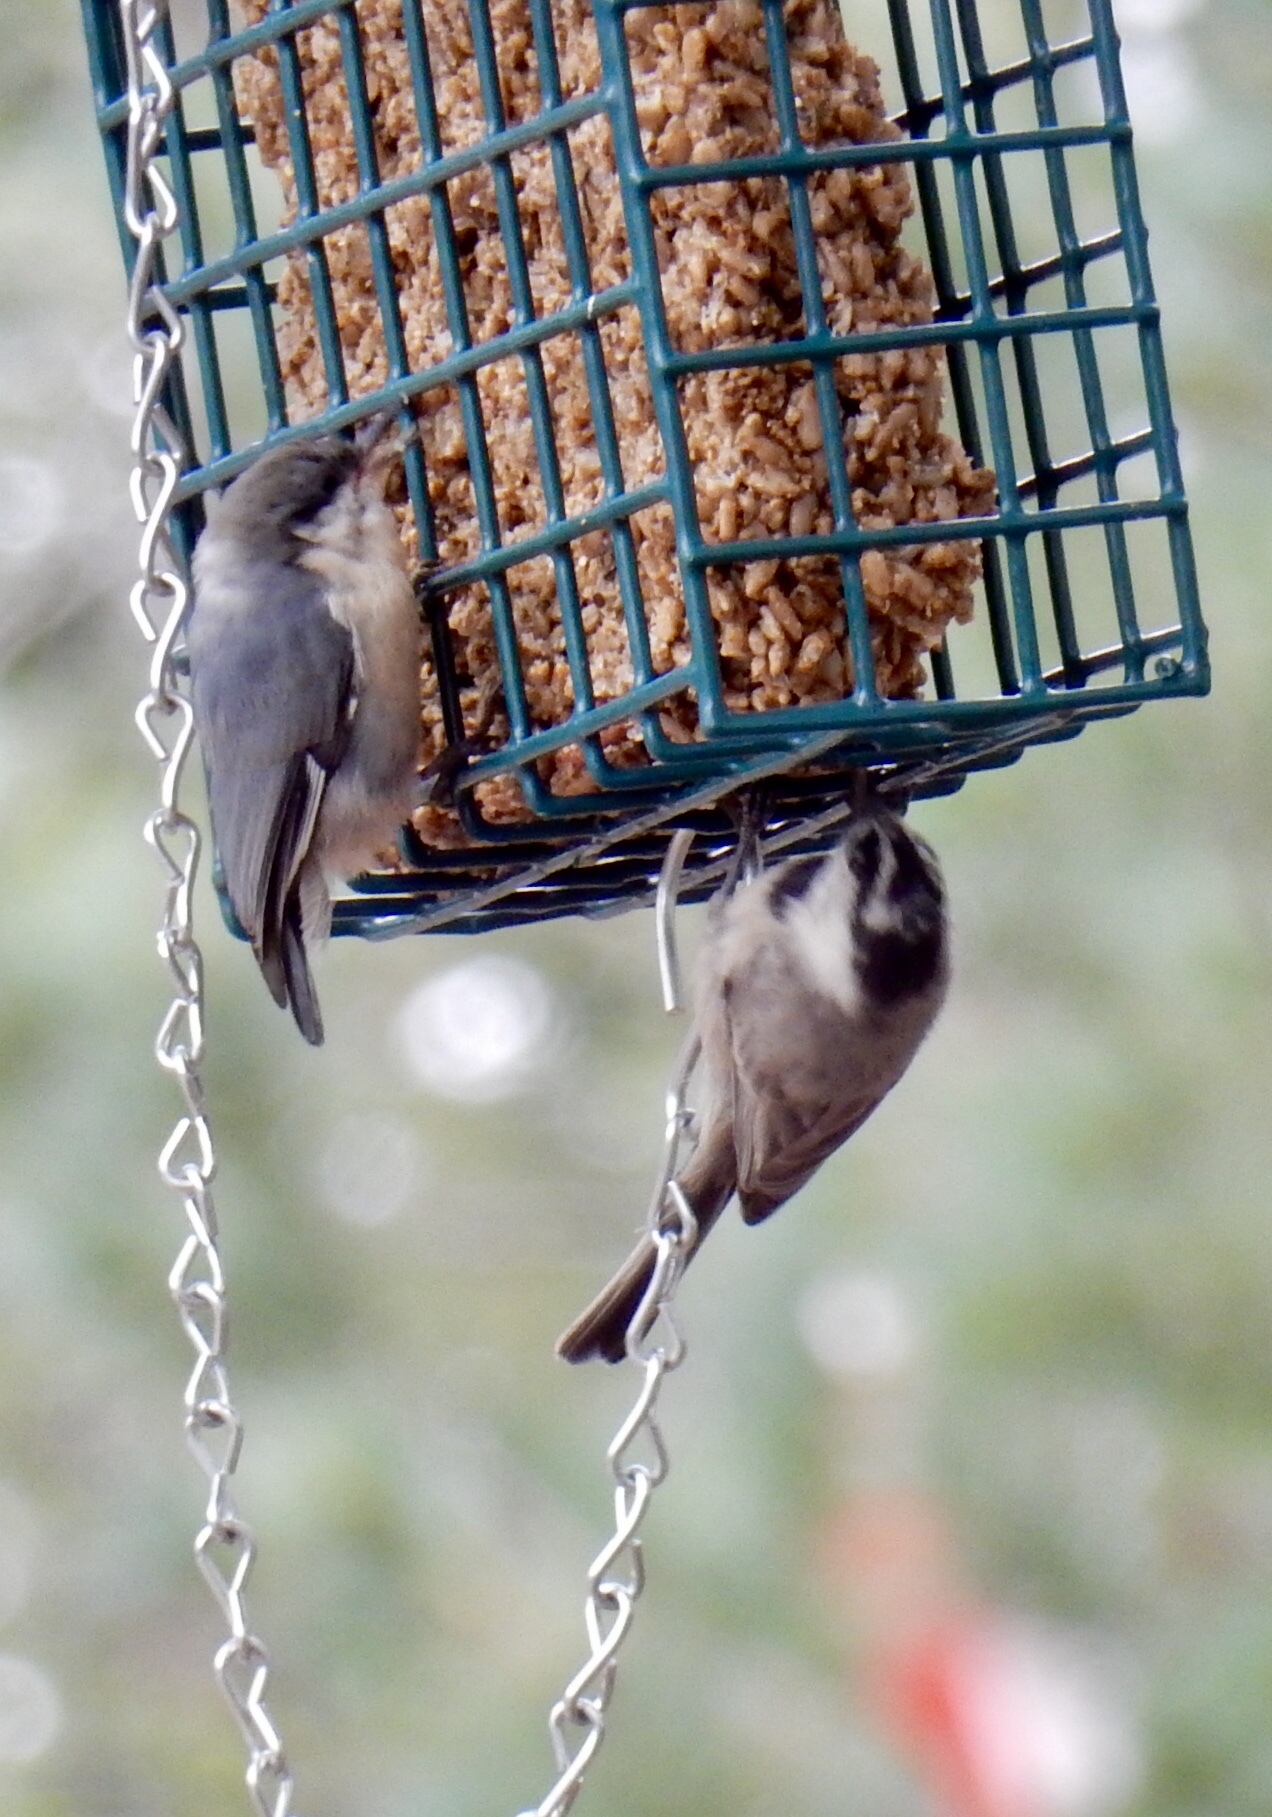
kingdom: Animalia
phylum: Chordata
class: Aves
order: Passeriformes
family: Sittidae
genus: Sitta
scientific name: Sitta pygmaea
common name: Pygmy nuthatch
